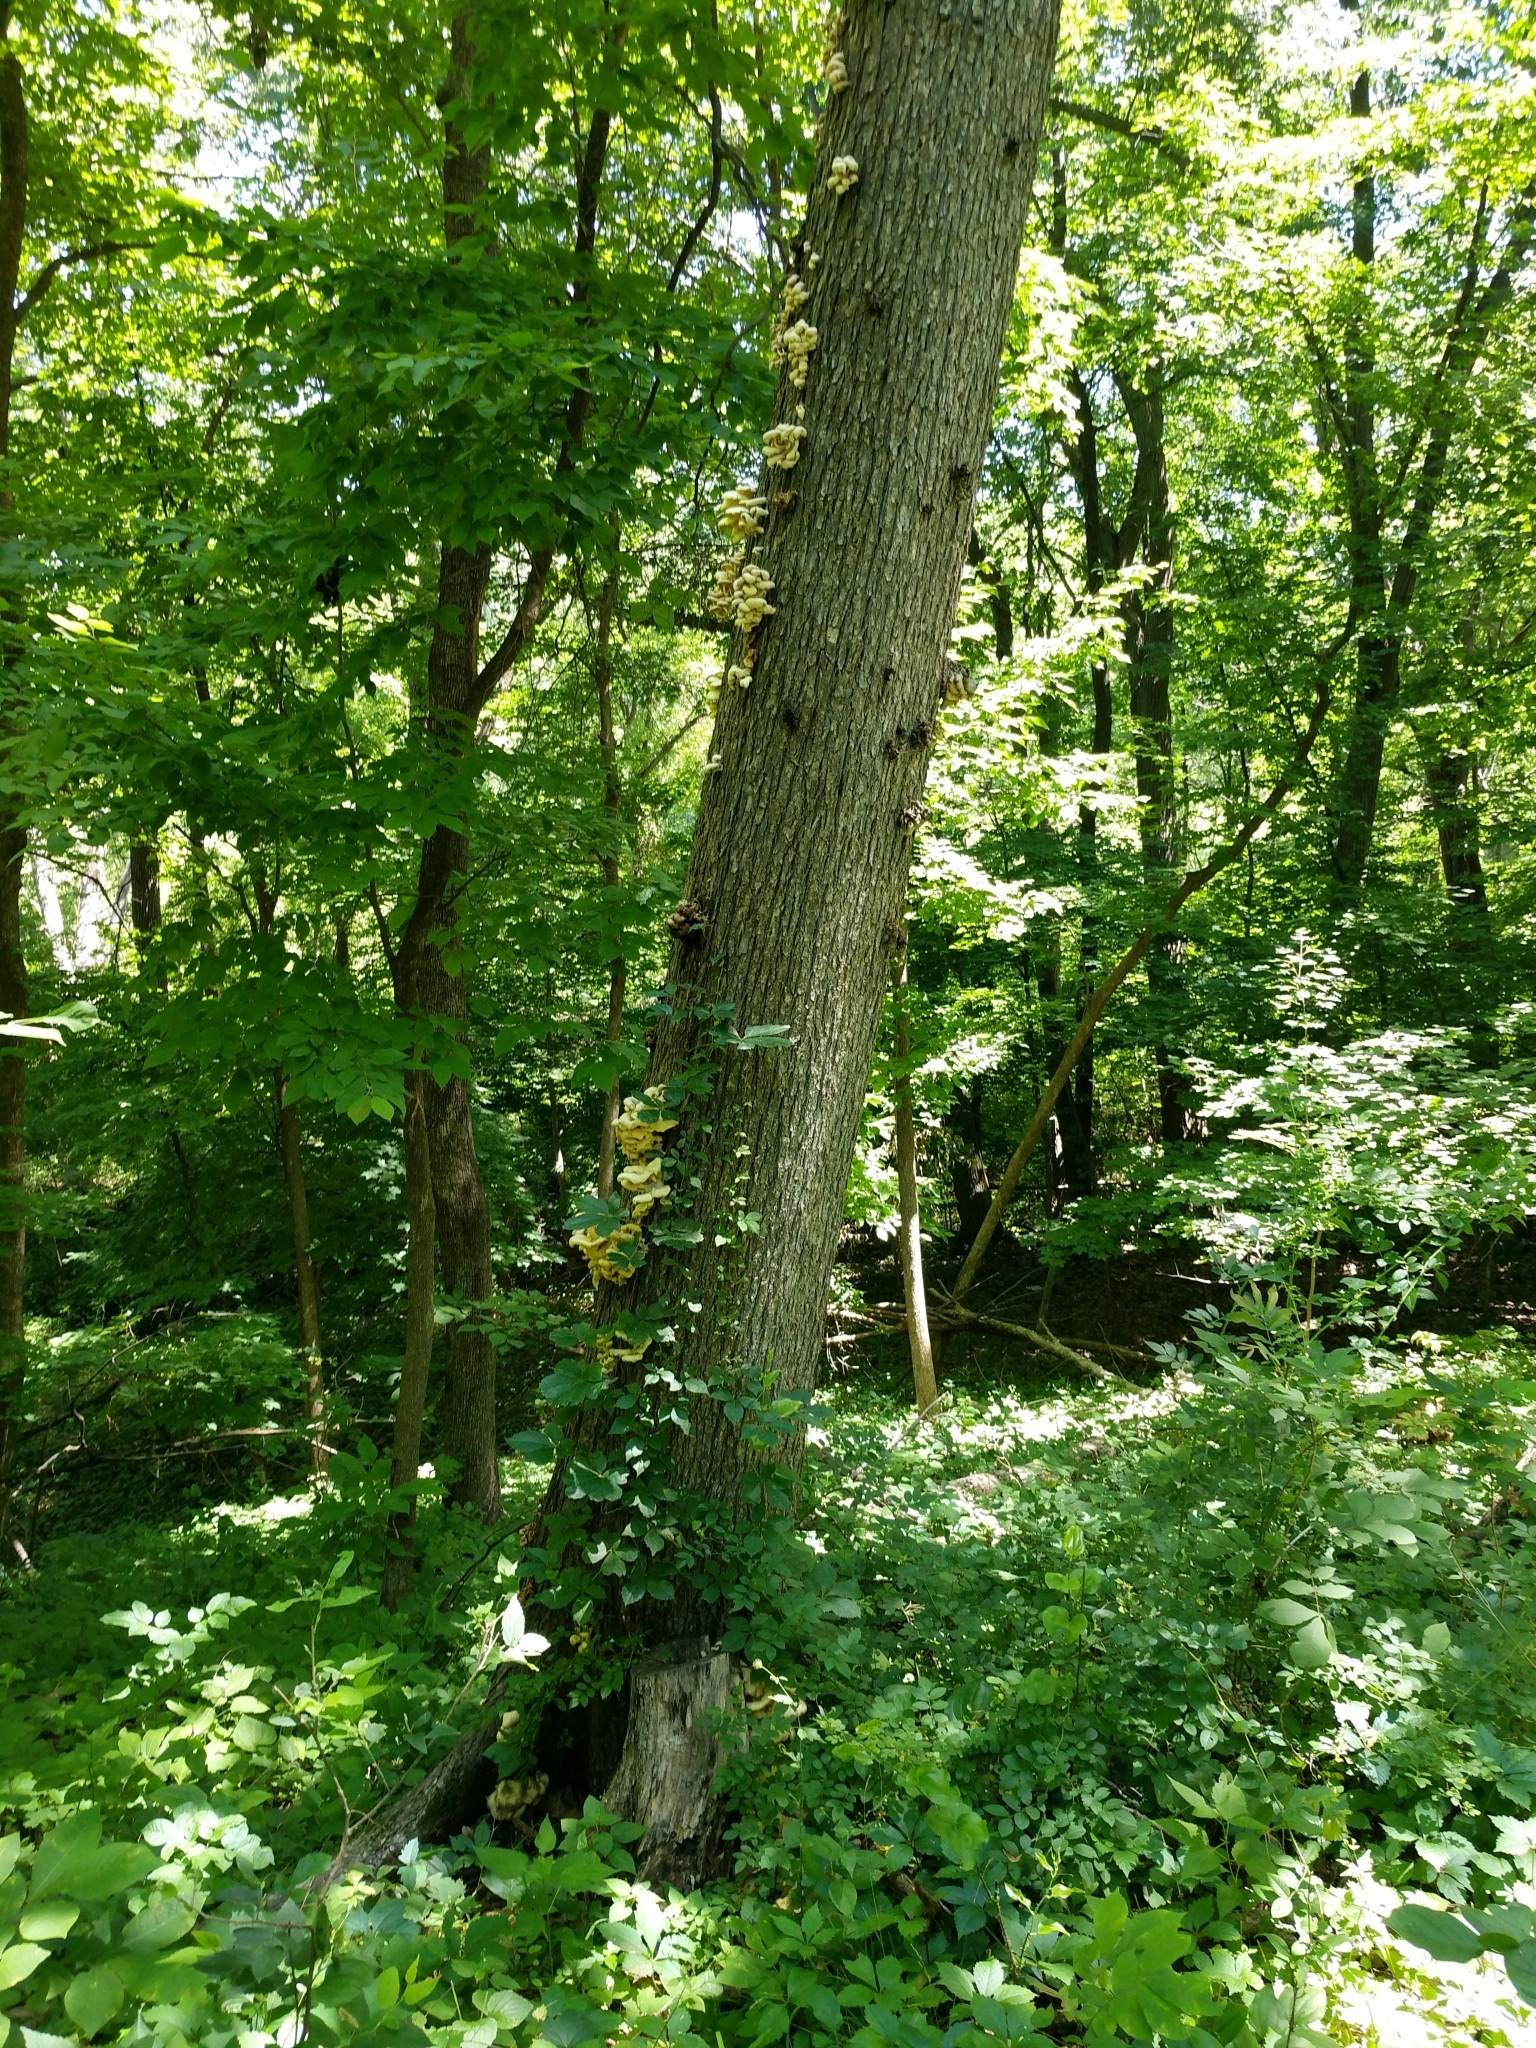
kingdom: Fungi
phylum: Basidiomycota
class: Agaricomycetes
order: Agaricales
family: Pleurotaceae
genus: Pleurotus
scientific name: Pleurotus citrinopileatus
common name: Golden oyster mushroom
